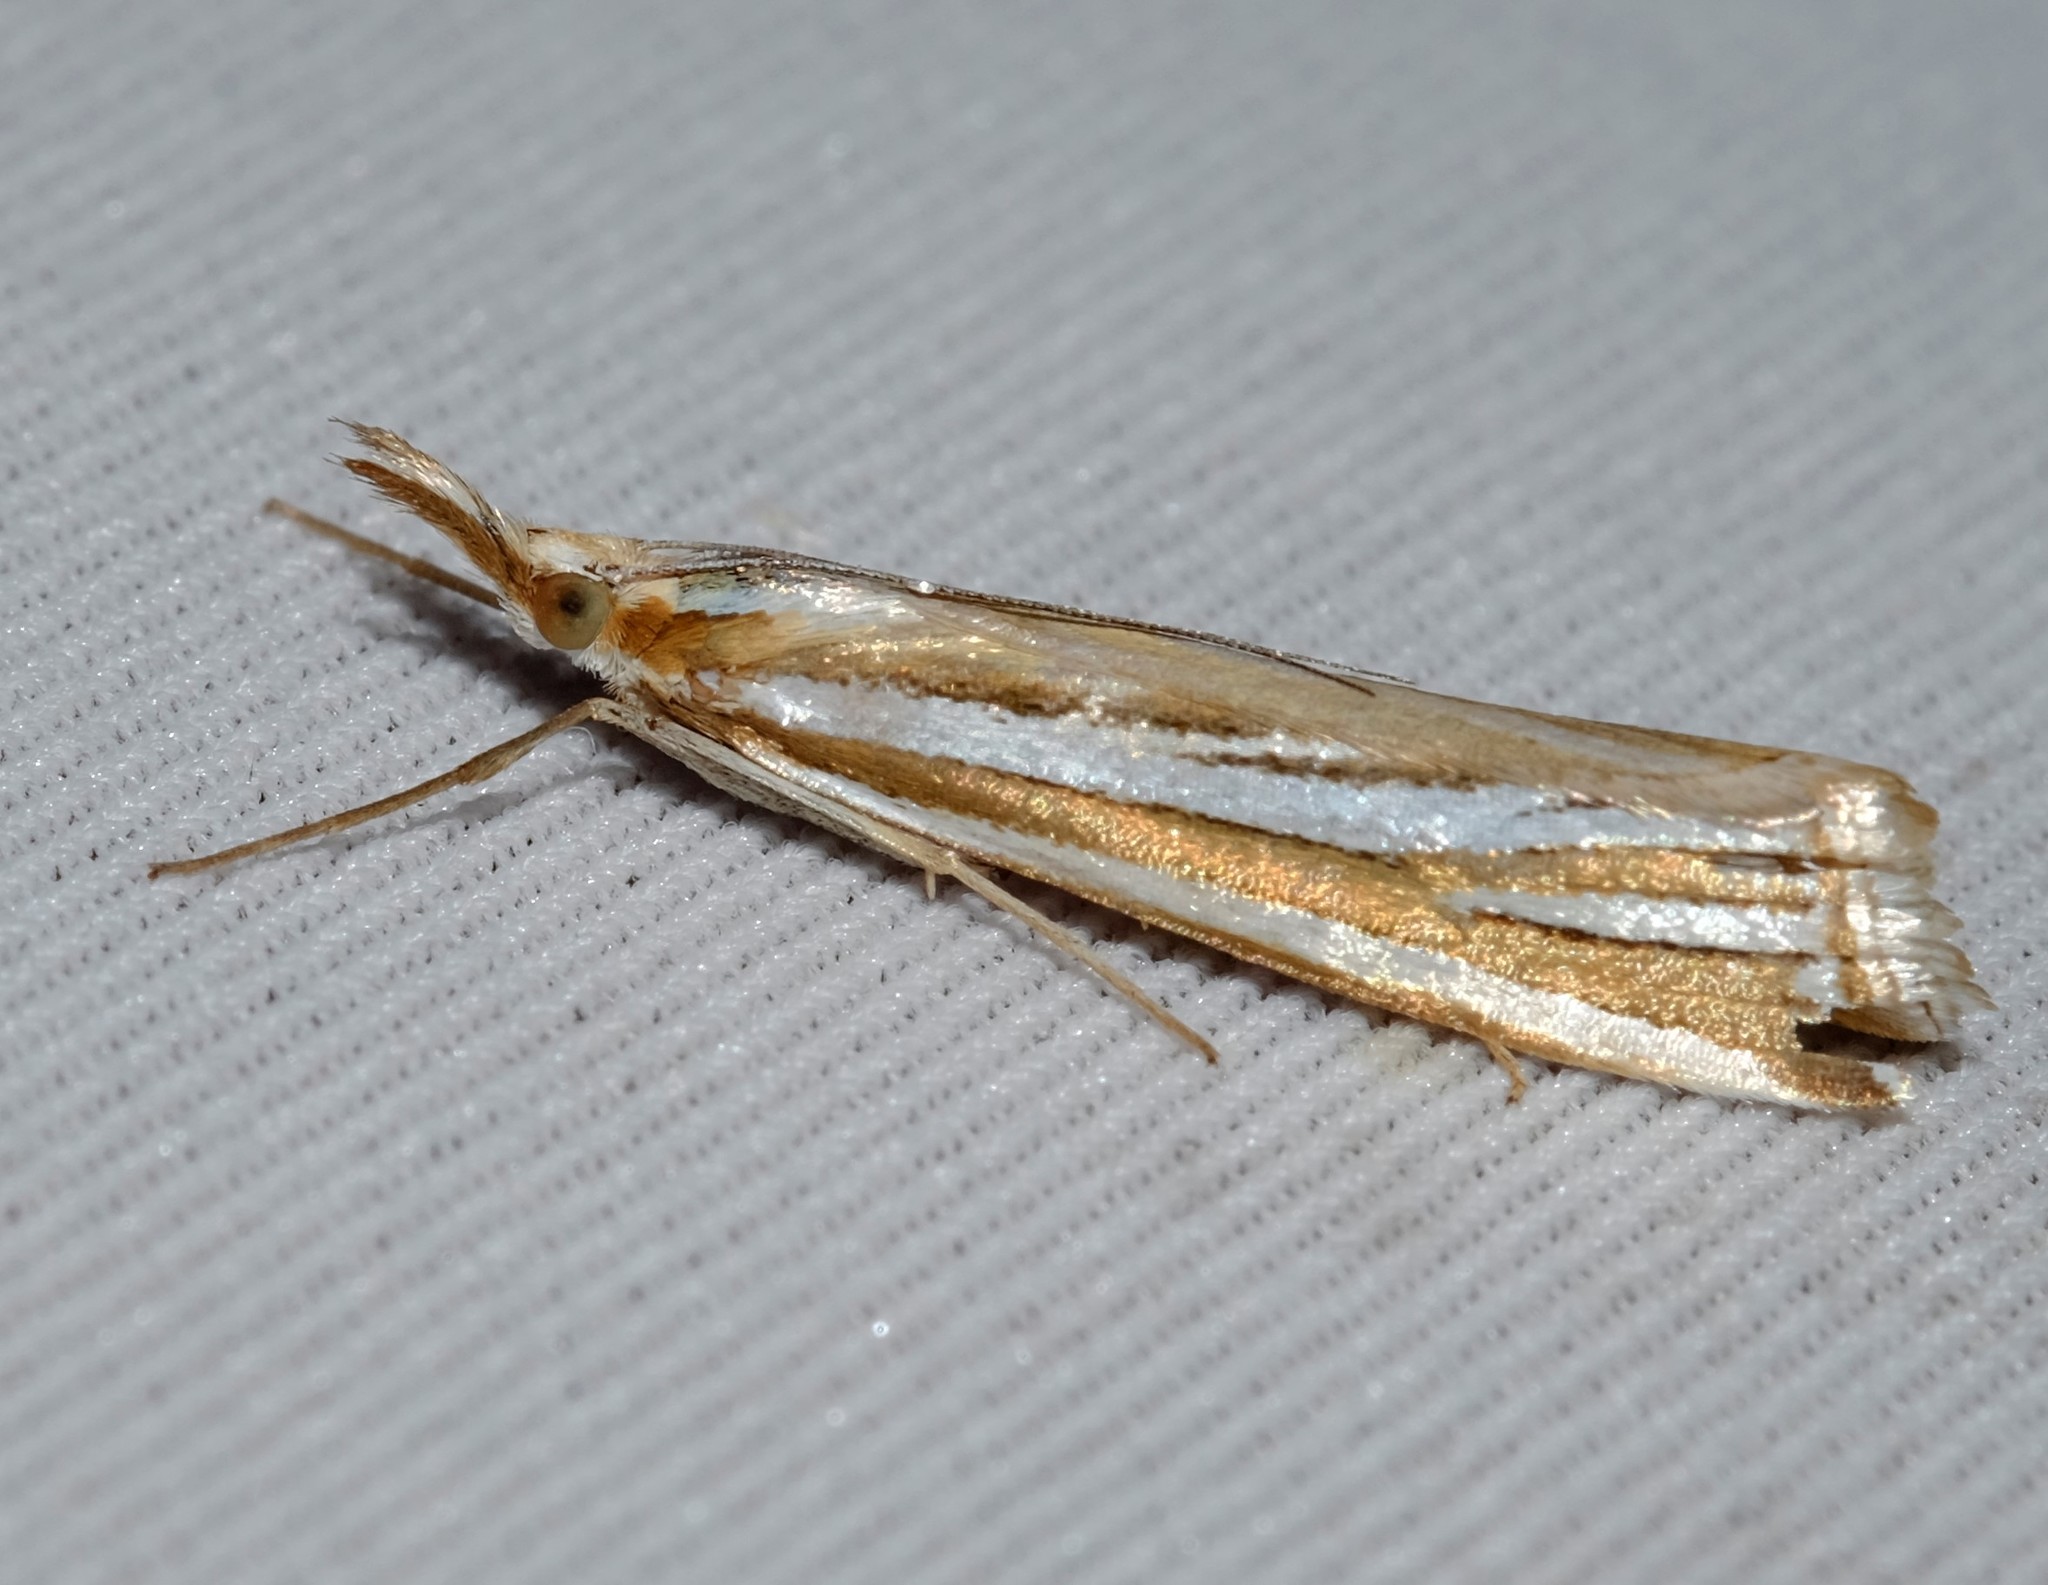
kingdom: Animalia
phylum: Arthropoda
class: Insecta
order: Lepidoptera
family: Crambidae
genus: Hednota
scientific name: Hednota relatalis
